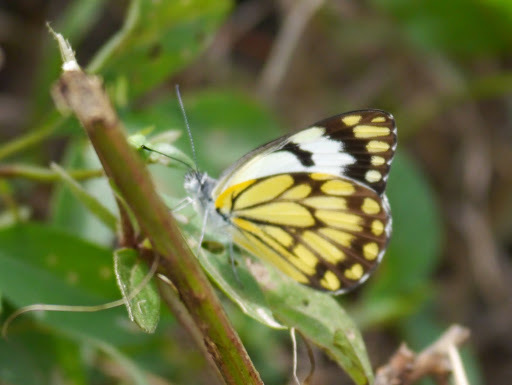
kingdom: Animalia
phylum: Arthropoda
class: Insecta
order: Lepidoptera
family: Pieridae
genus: Belenois
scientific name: Belenois creona
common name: African caper white
